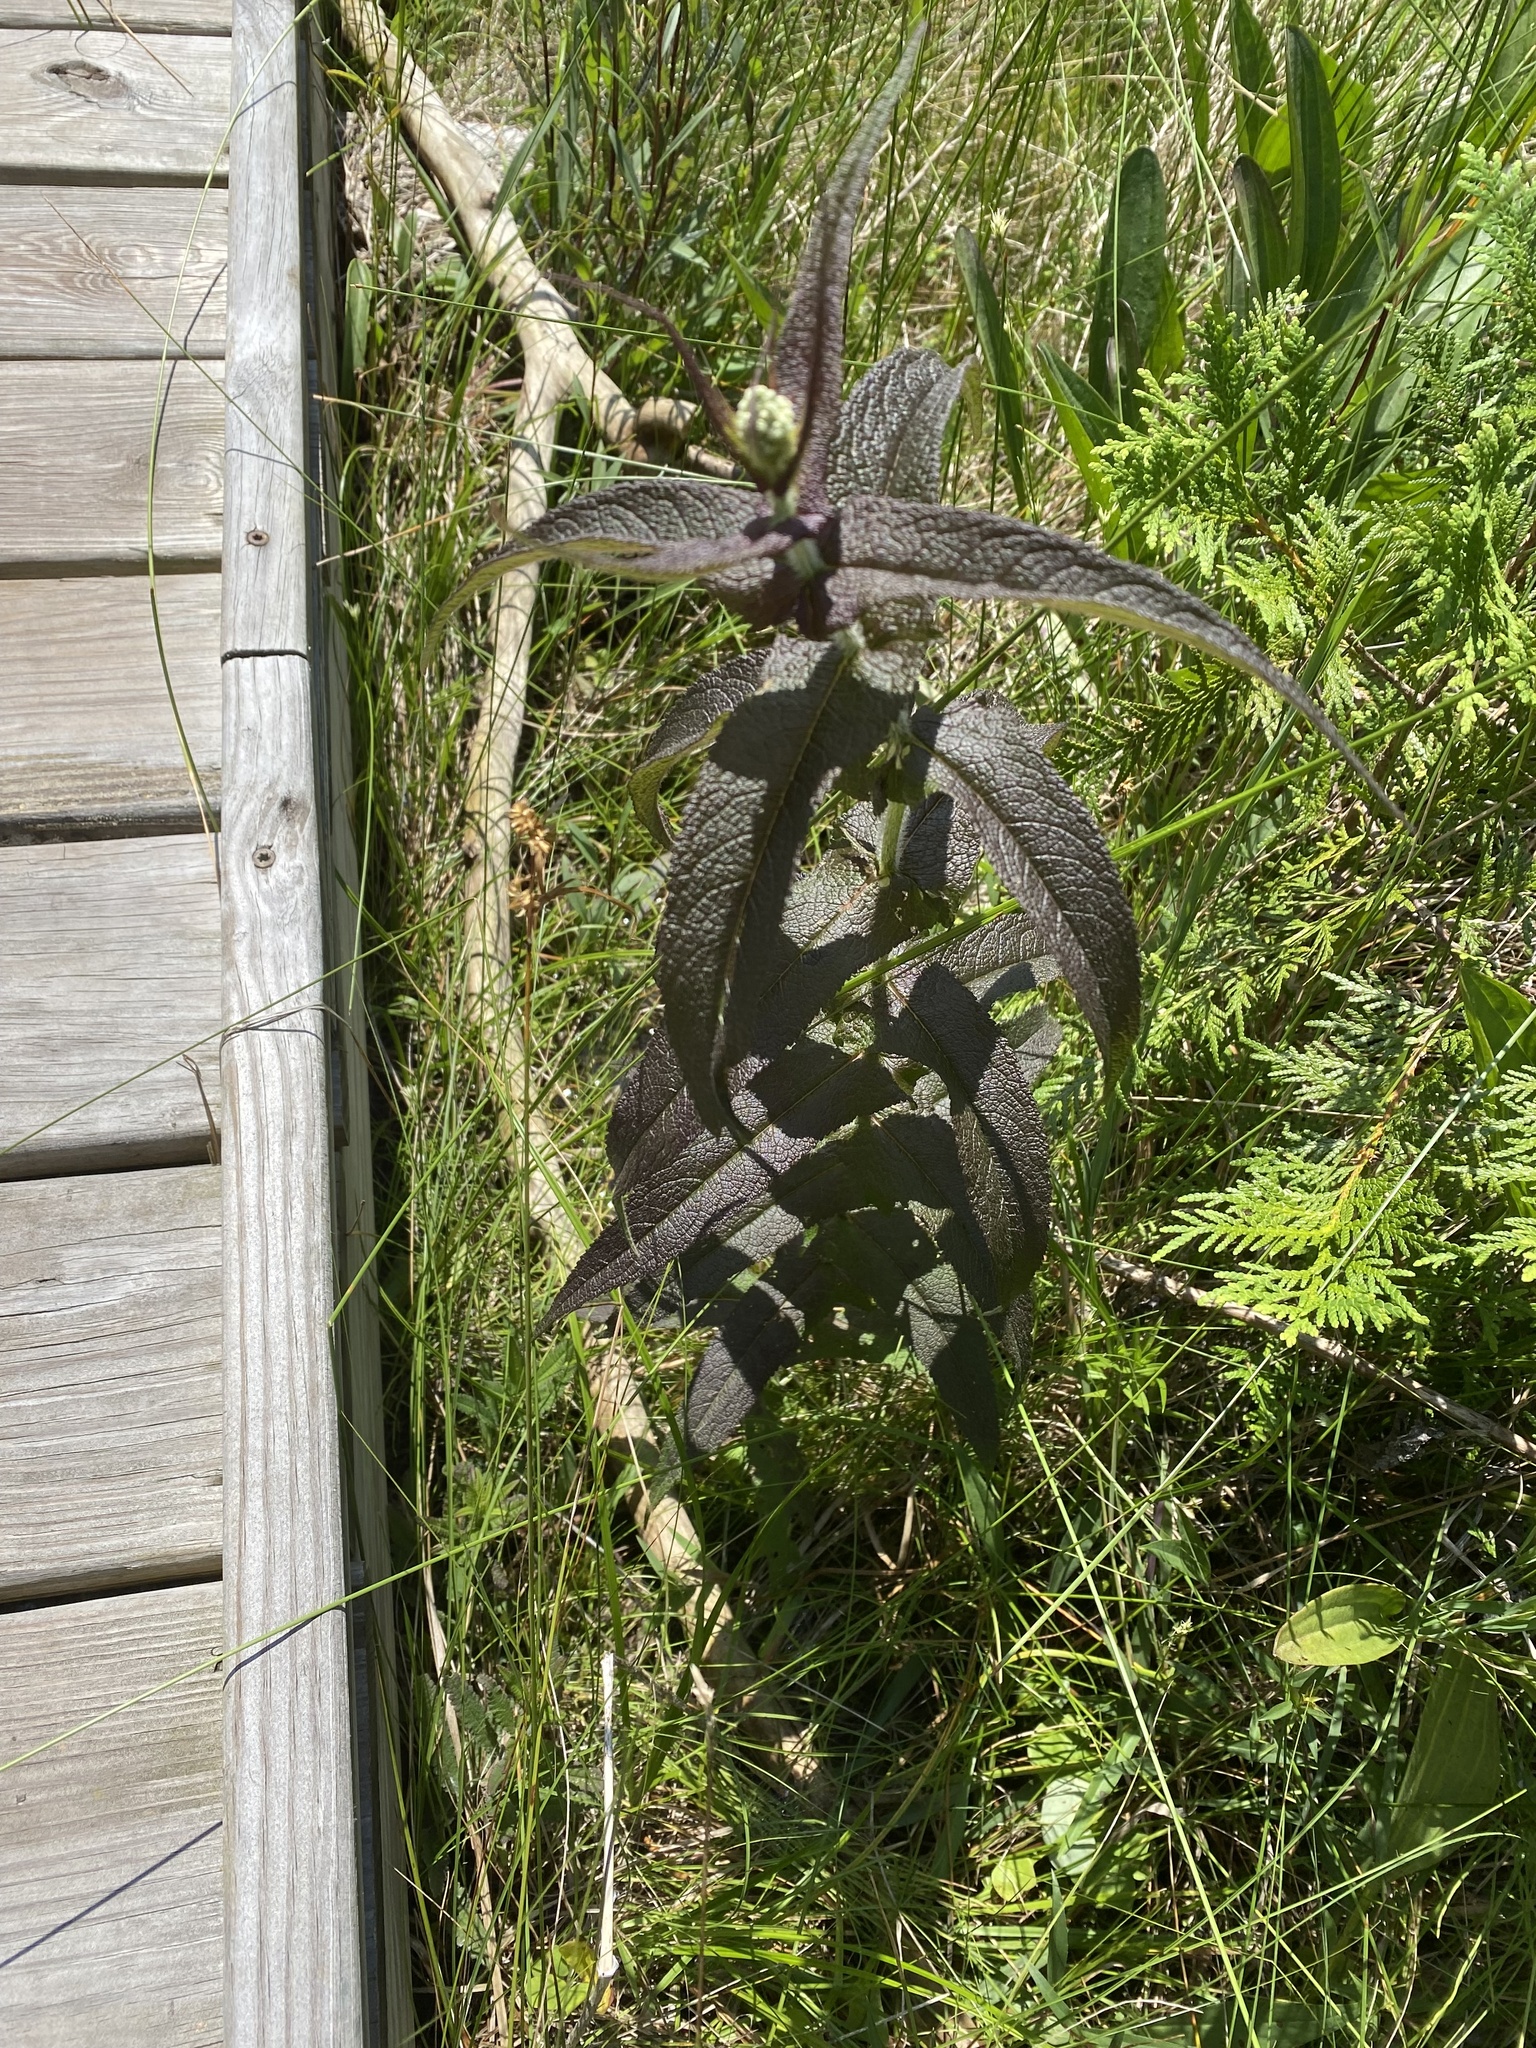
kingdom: Plantae
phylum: Tracheophyta
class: Magnoliopsida
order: Asterales
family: Asteraceae
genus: Eupatorium
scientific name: Eupatorium perfoliatum
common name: Boneset
